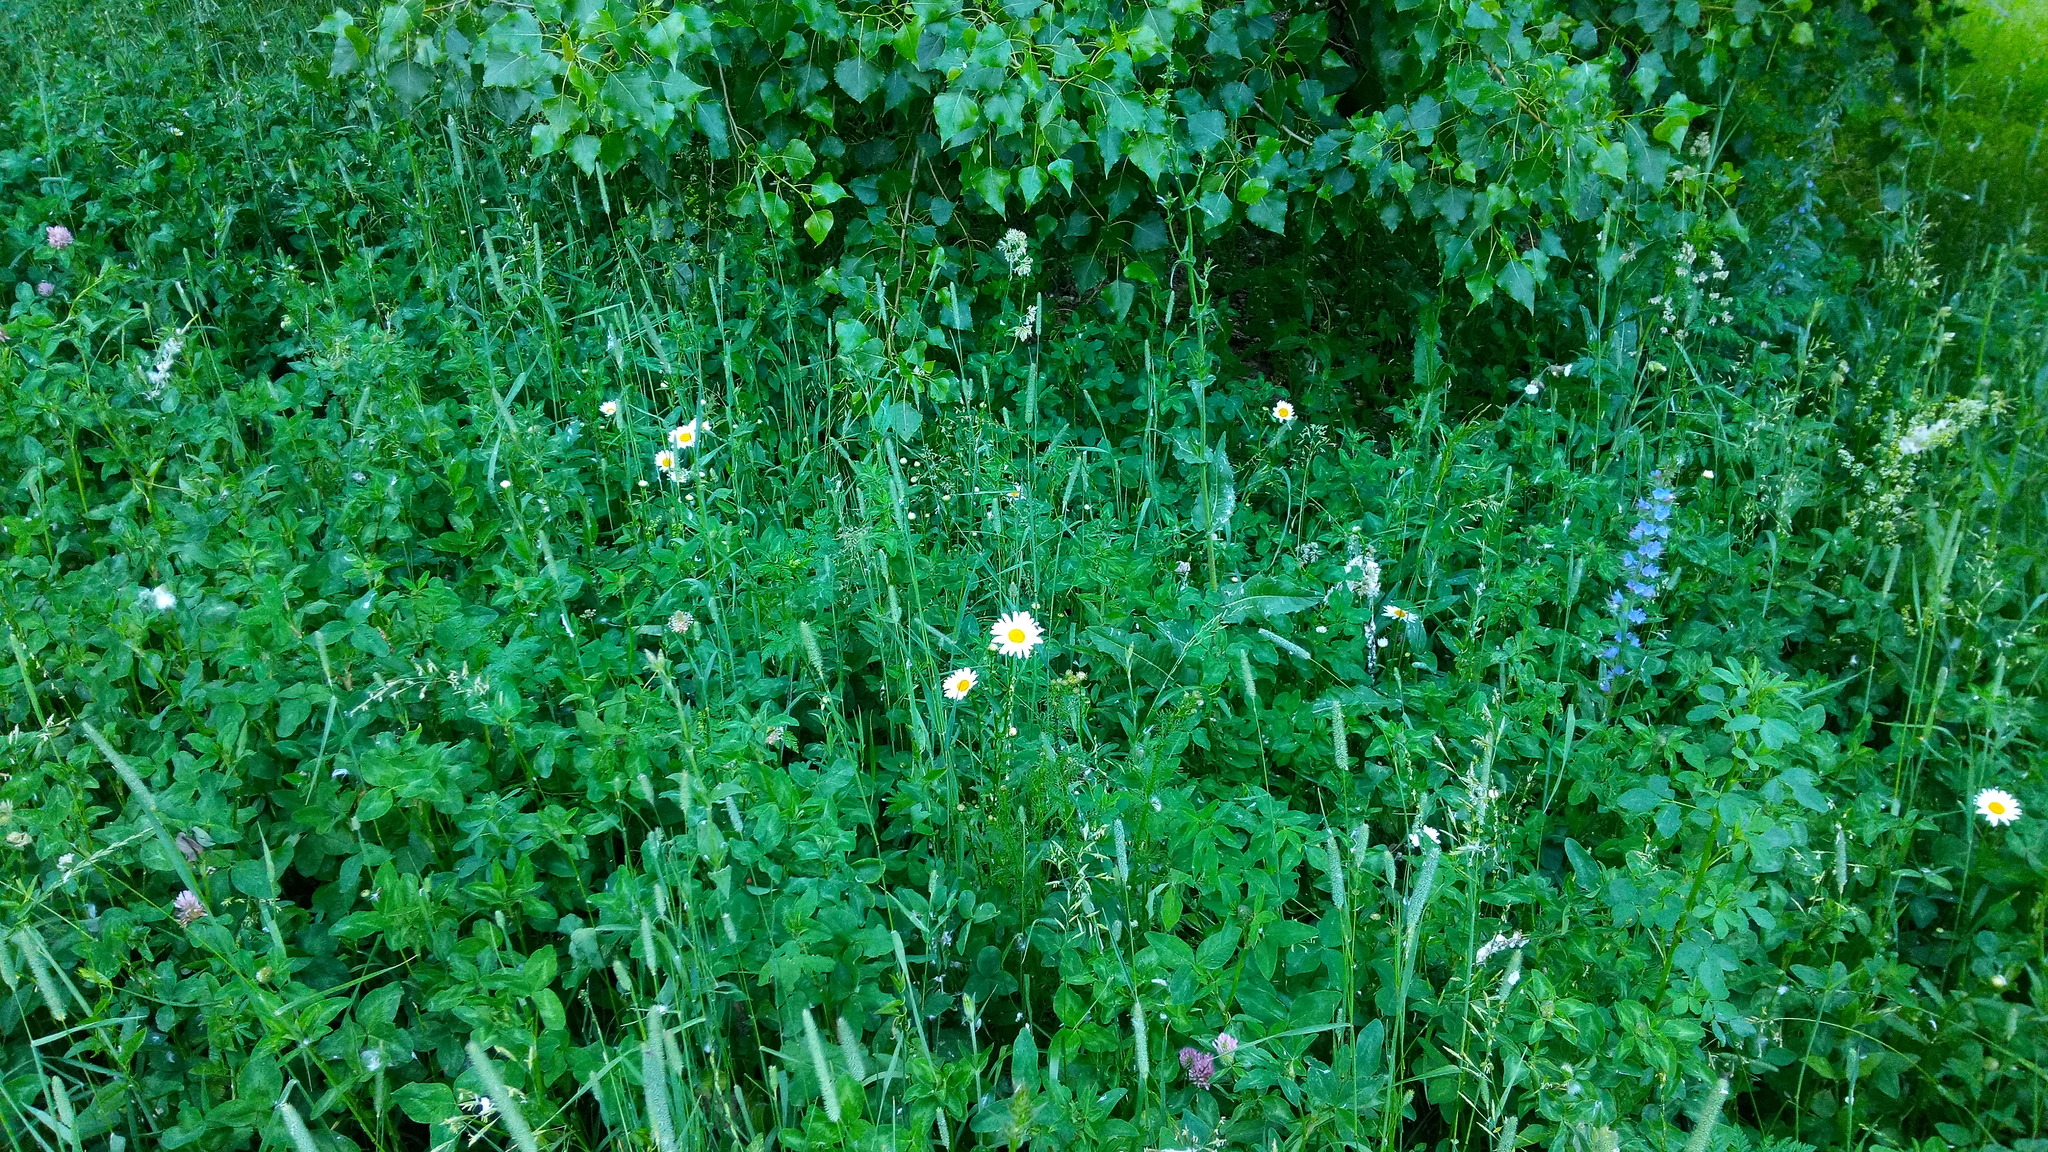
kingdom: Plantae
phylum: Tracheophyta
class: Magnoliopsida
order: Asterales
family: Asteraceae
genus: Leucanthemum
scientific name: Leucanthemum vulgare
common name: Oxeye daisy
